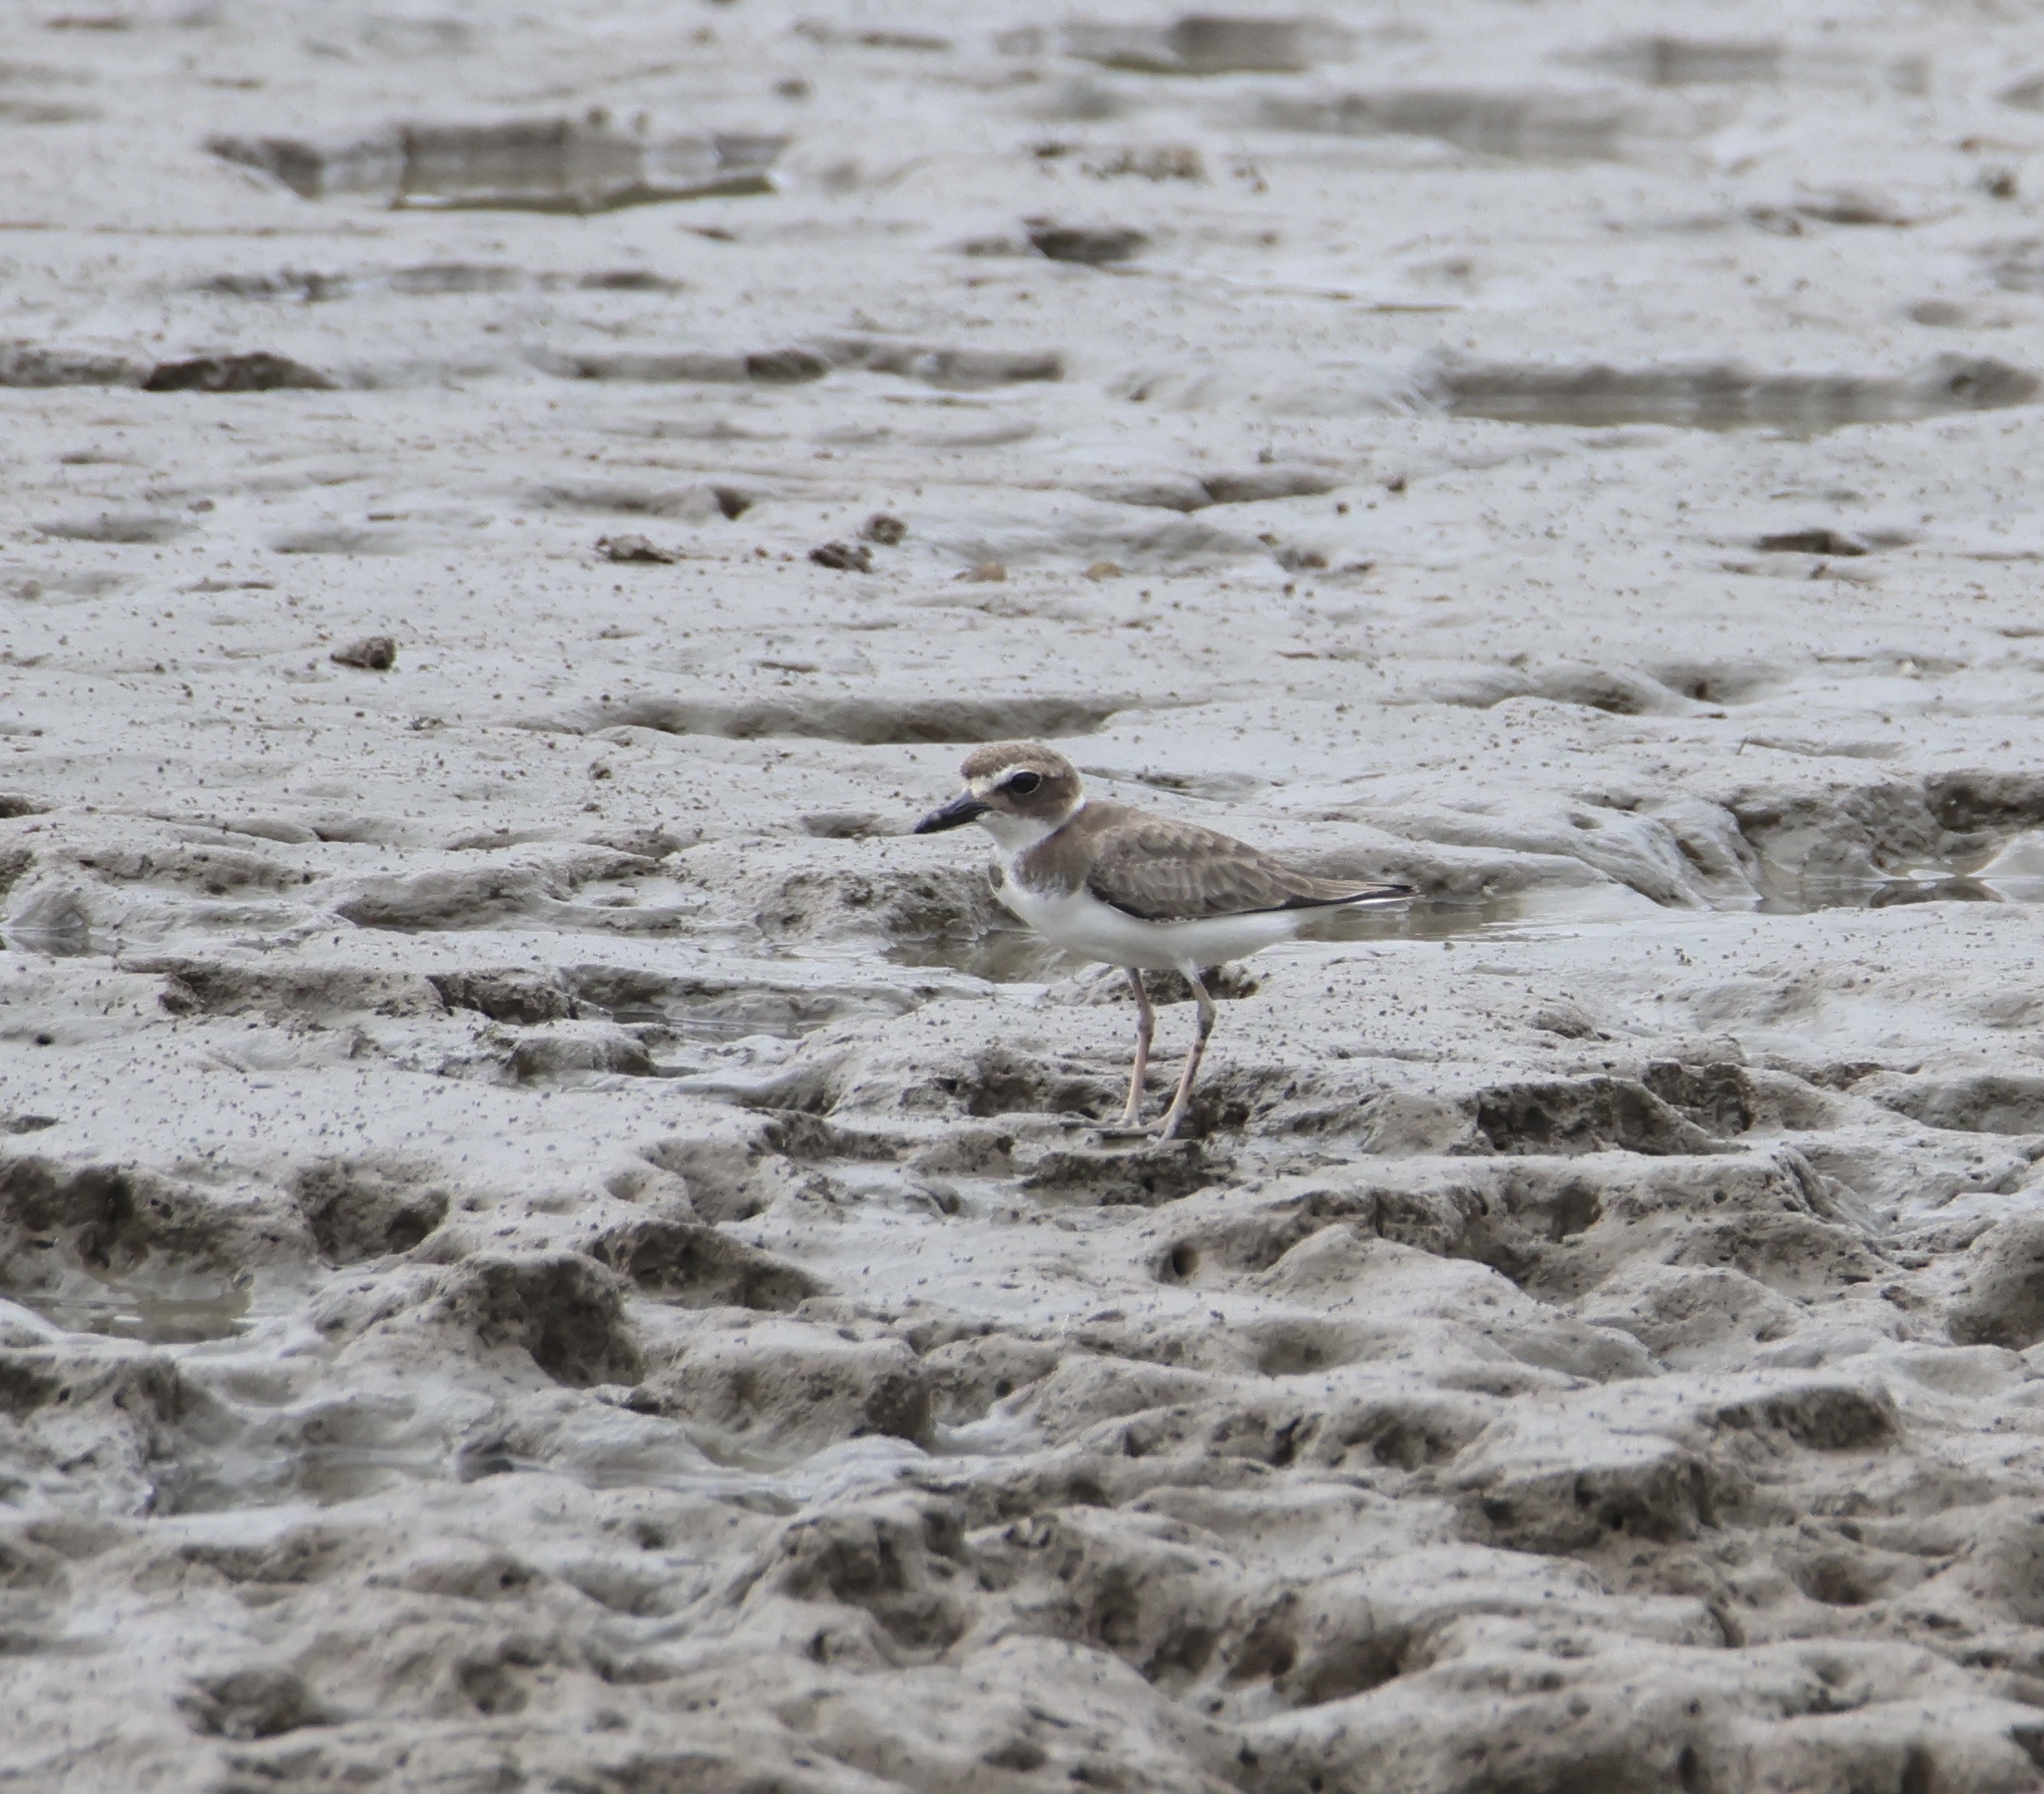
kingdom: Animalia
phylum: Chordata
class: Aves
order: Charadriiformes
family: Charadriidae
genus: Anarhynchus
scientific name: Anarhynchus
